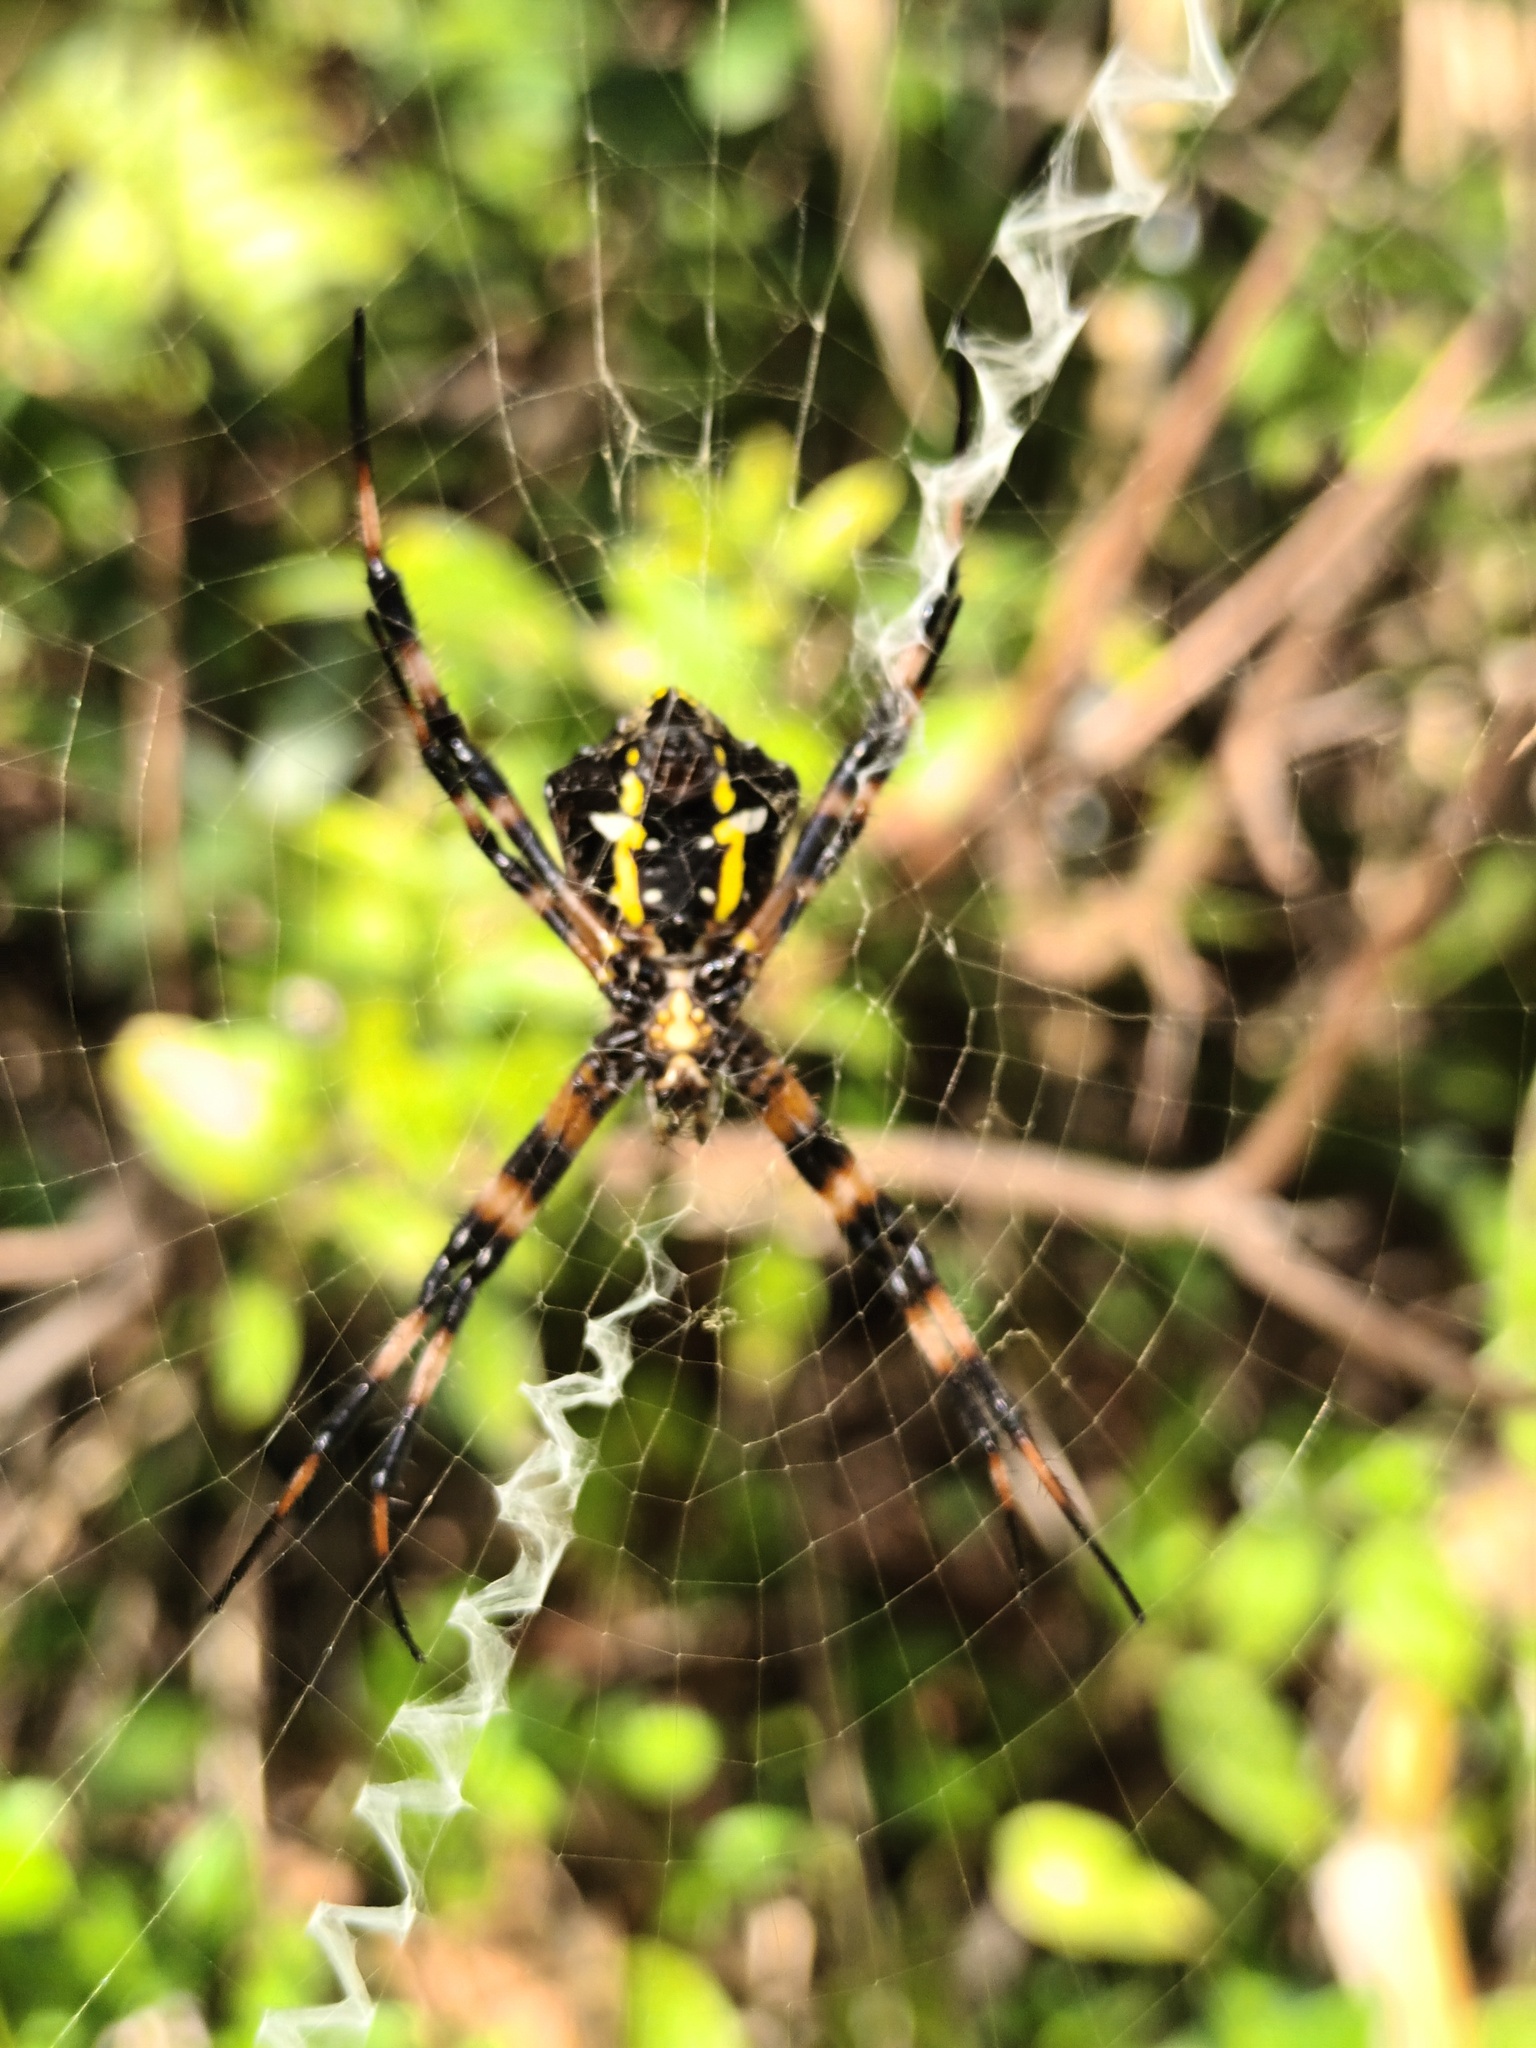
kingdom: Animalia
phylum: Arthropoda
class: Arachnida
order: Araneae
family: Araneidae
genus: Argiope
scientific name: Argiope appensa
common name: Garden spider
